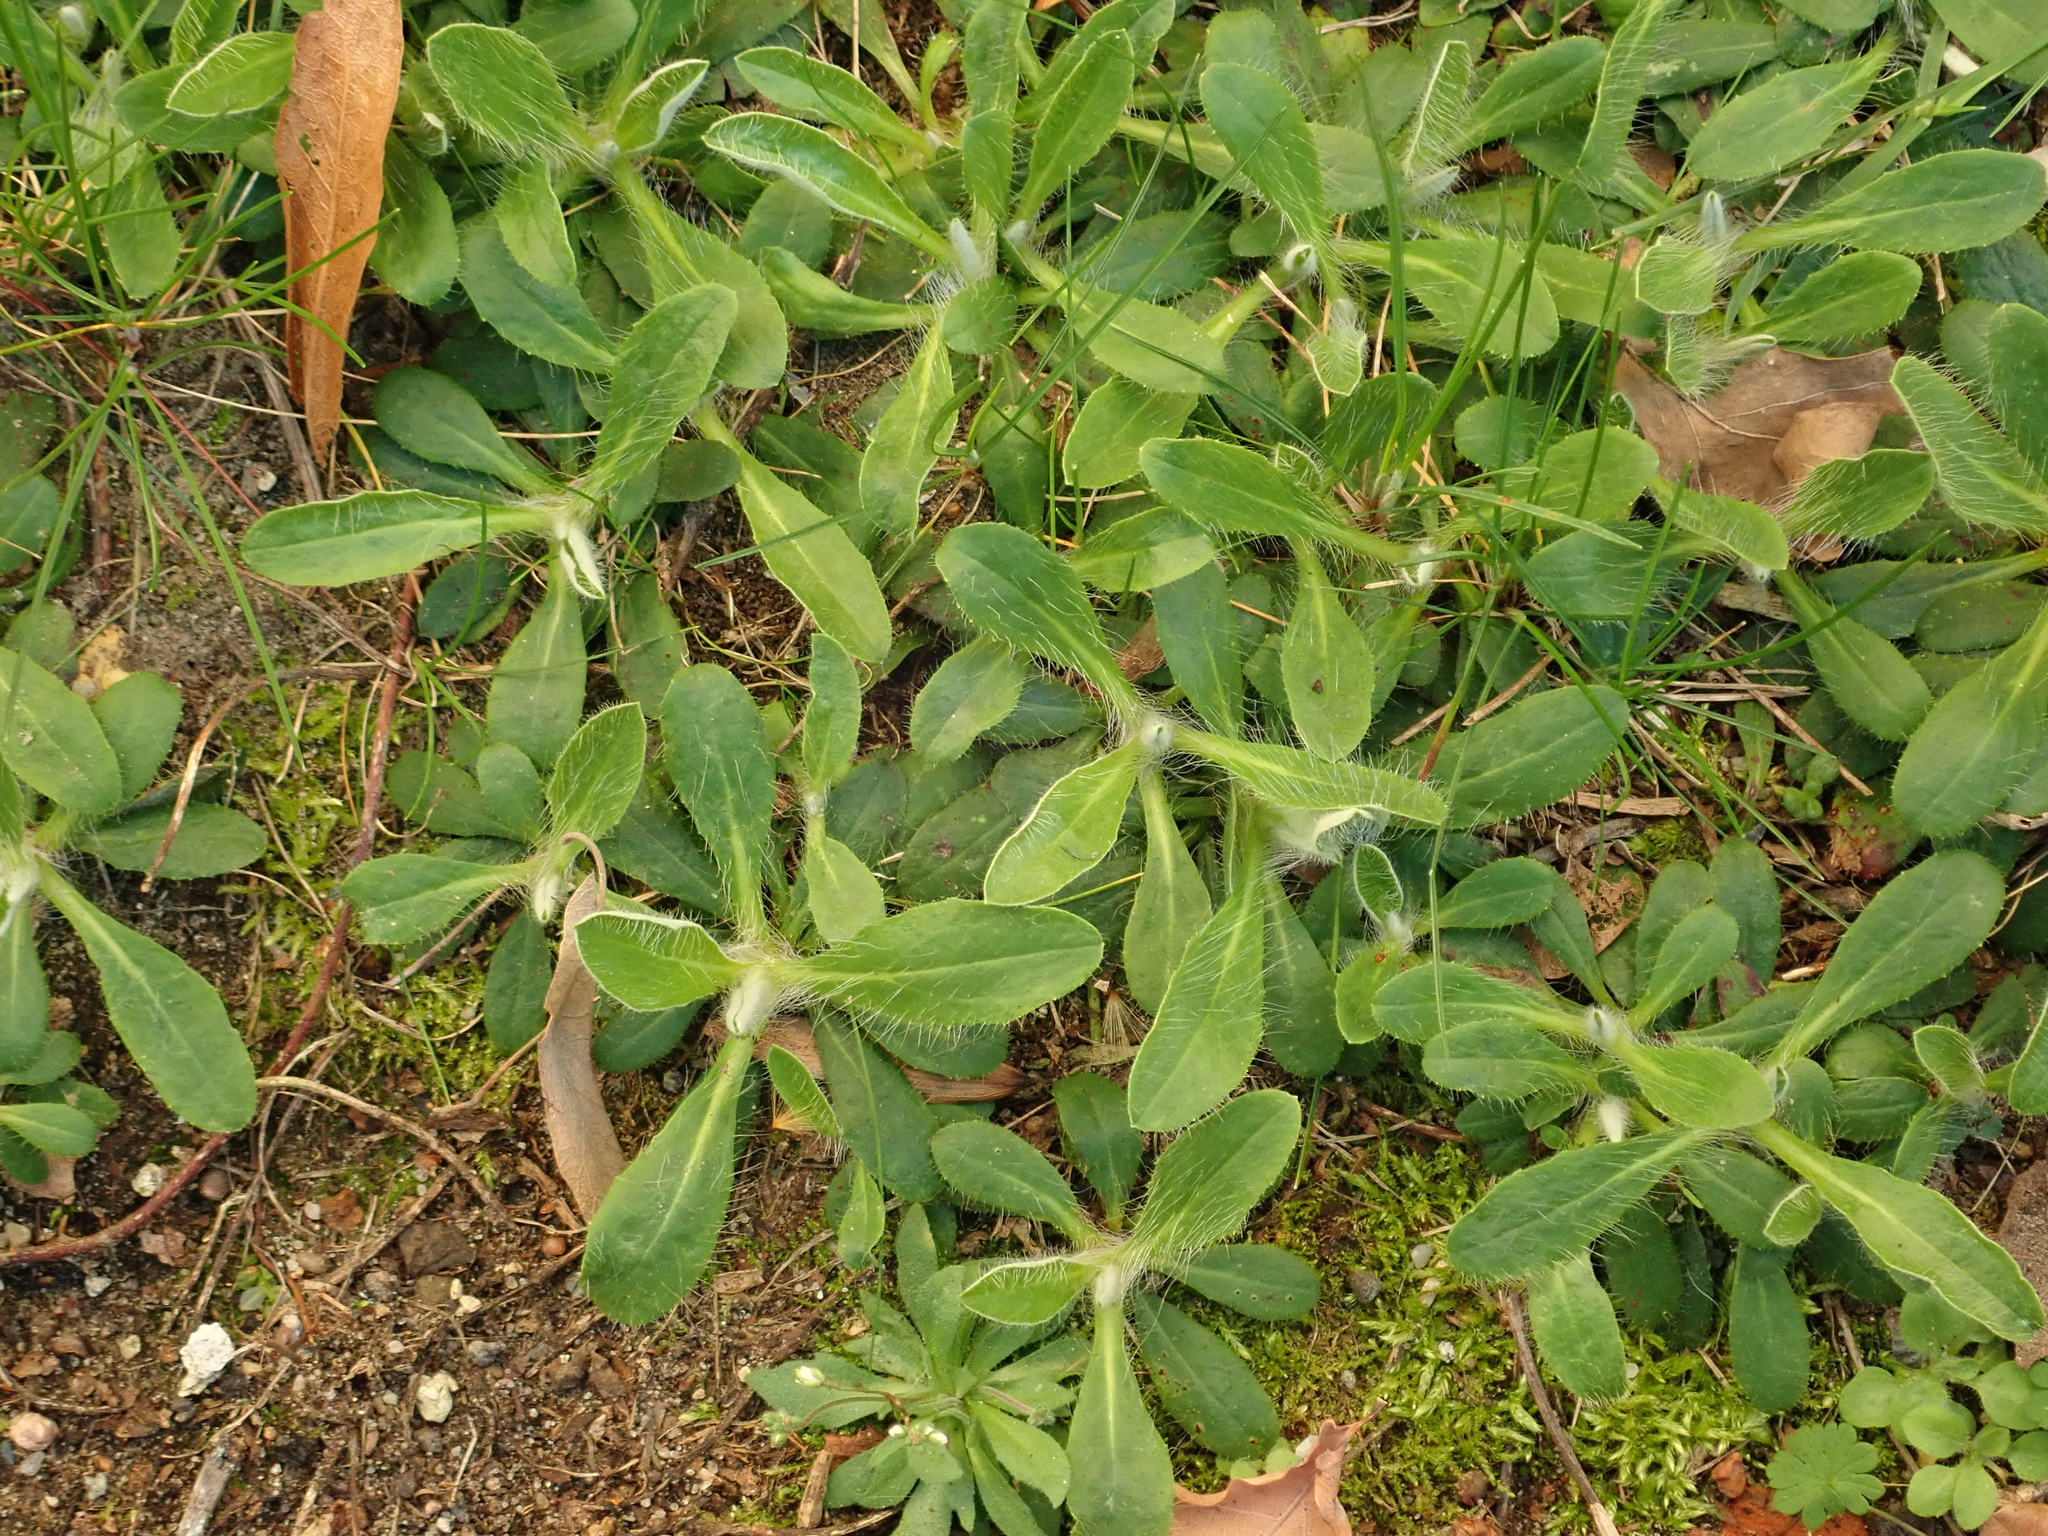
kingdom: Plantae
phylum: Tracheophyta
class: Magnoliopsida
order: Asterales
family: Asteraceae
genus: Pilosella
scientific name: Pilosella officinarum
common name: Mouse-ear hawkweed
